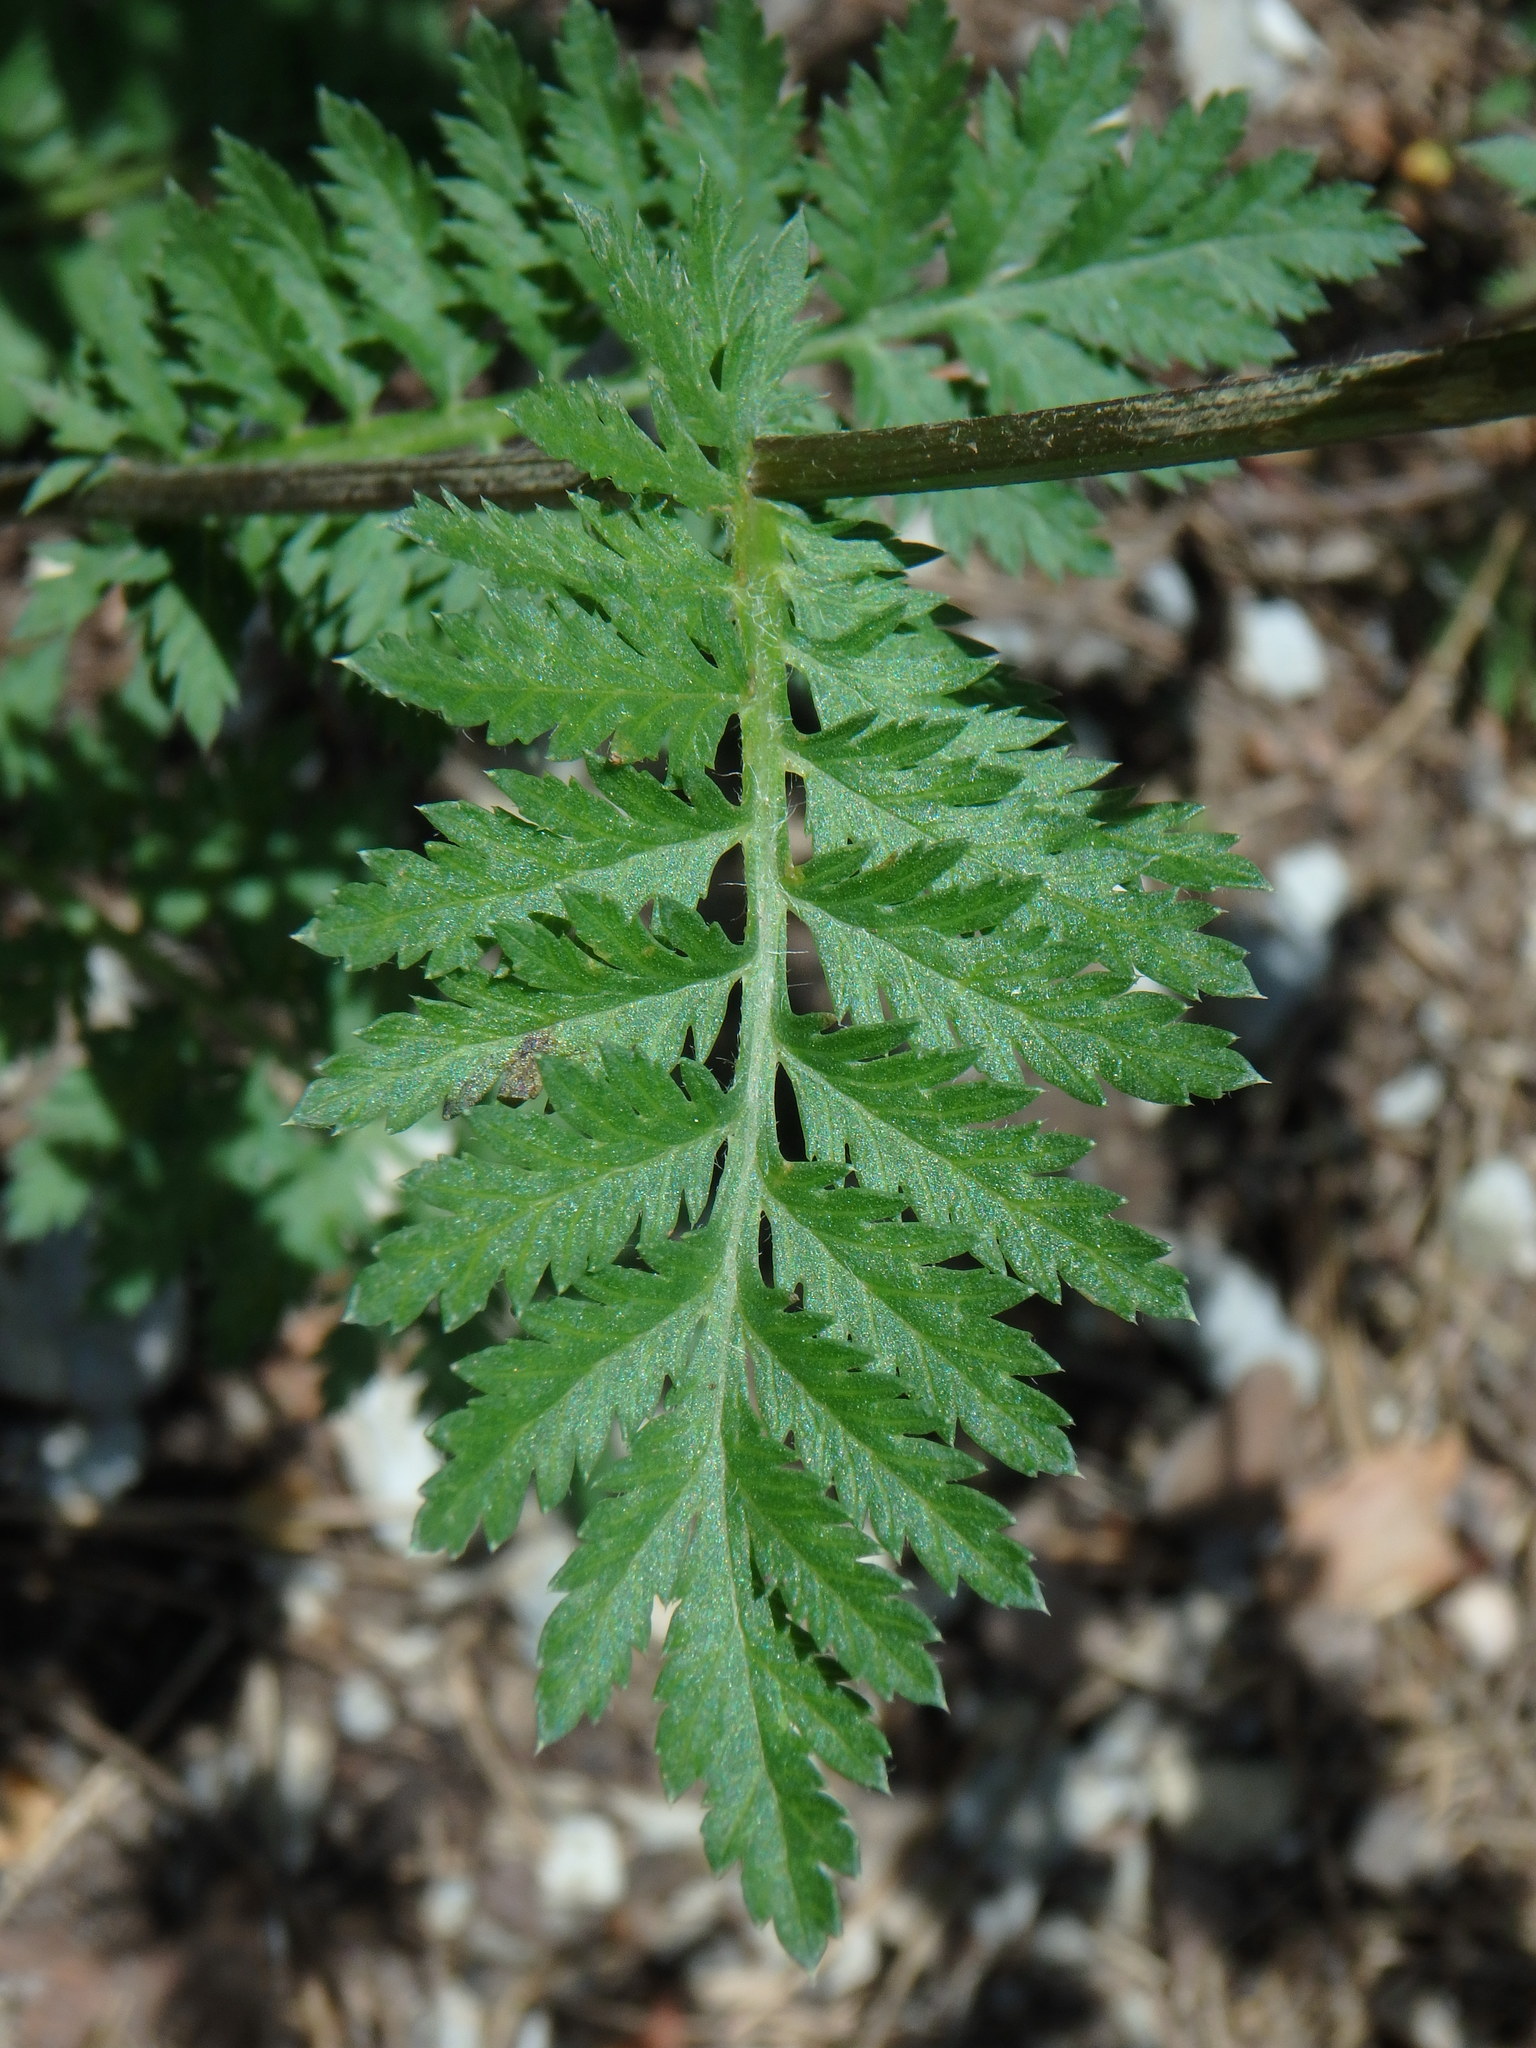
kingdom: Plantae
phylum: Tracheophyta
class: Magnoliopsida
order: Asterales
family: Asteraceae
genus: Tanacetum
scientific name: Tanacetum parthenium
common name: Feverfew
